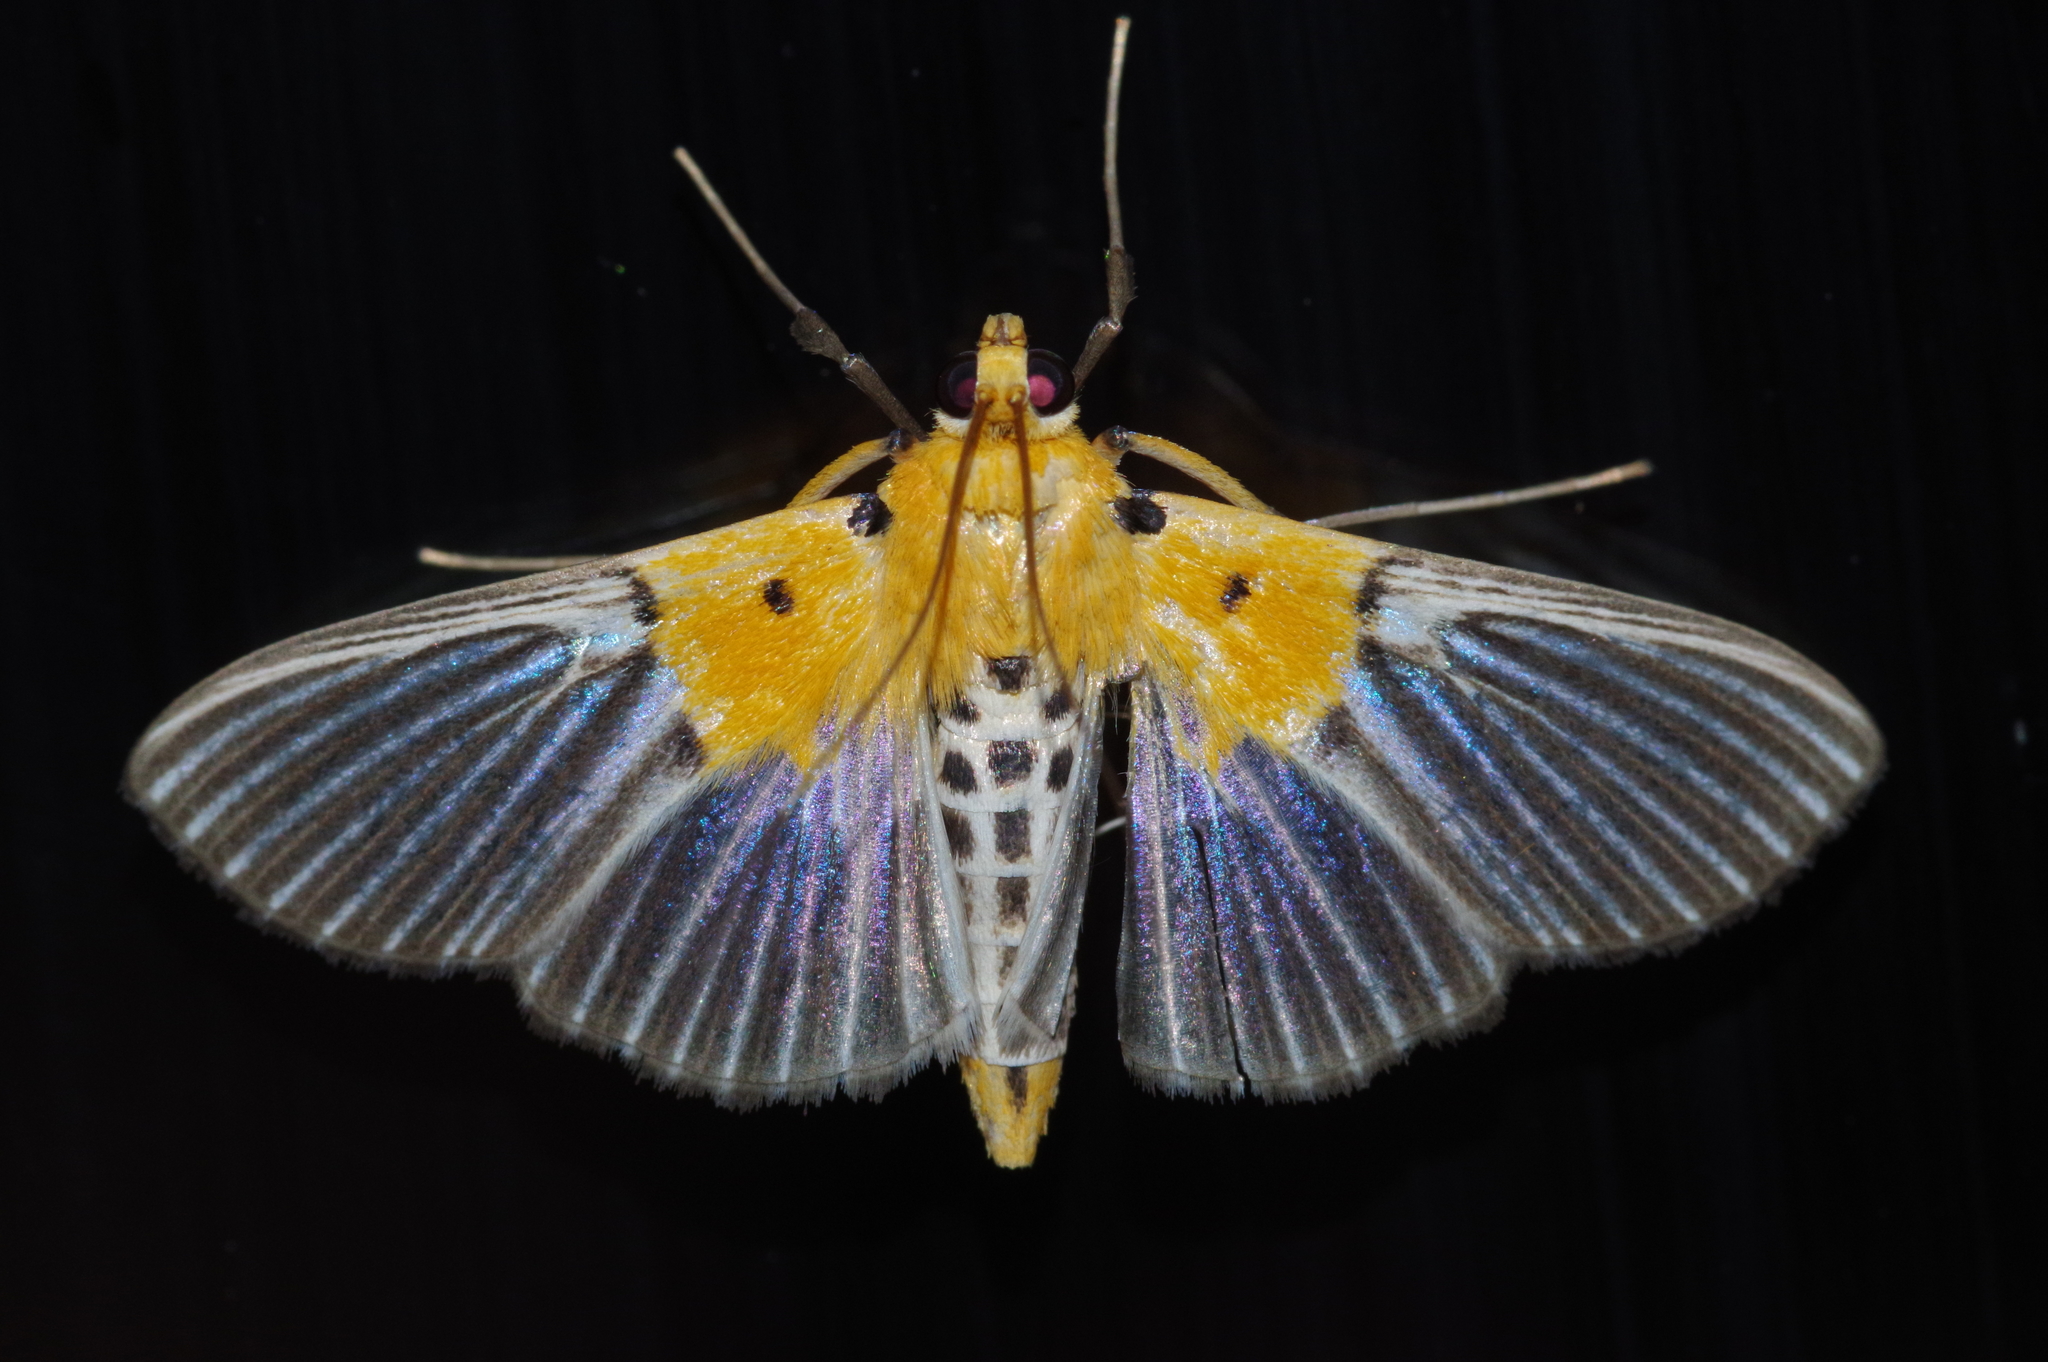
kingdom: Animalia
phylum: Arthropoda
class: Insecta
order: Lepidoptera
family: Crambidae
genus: Nevrina
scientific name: Nevrina procopia
